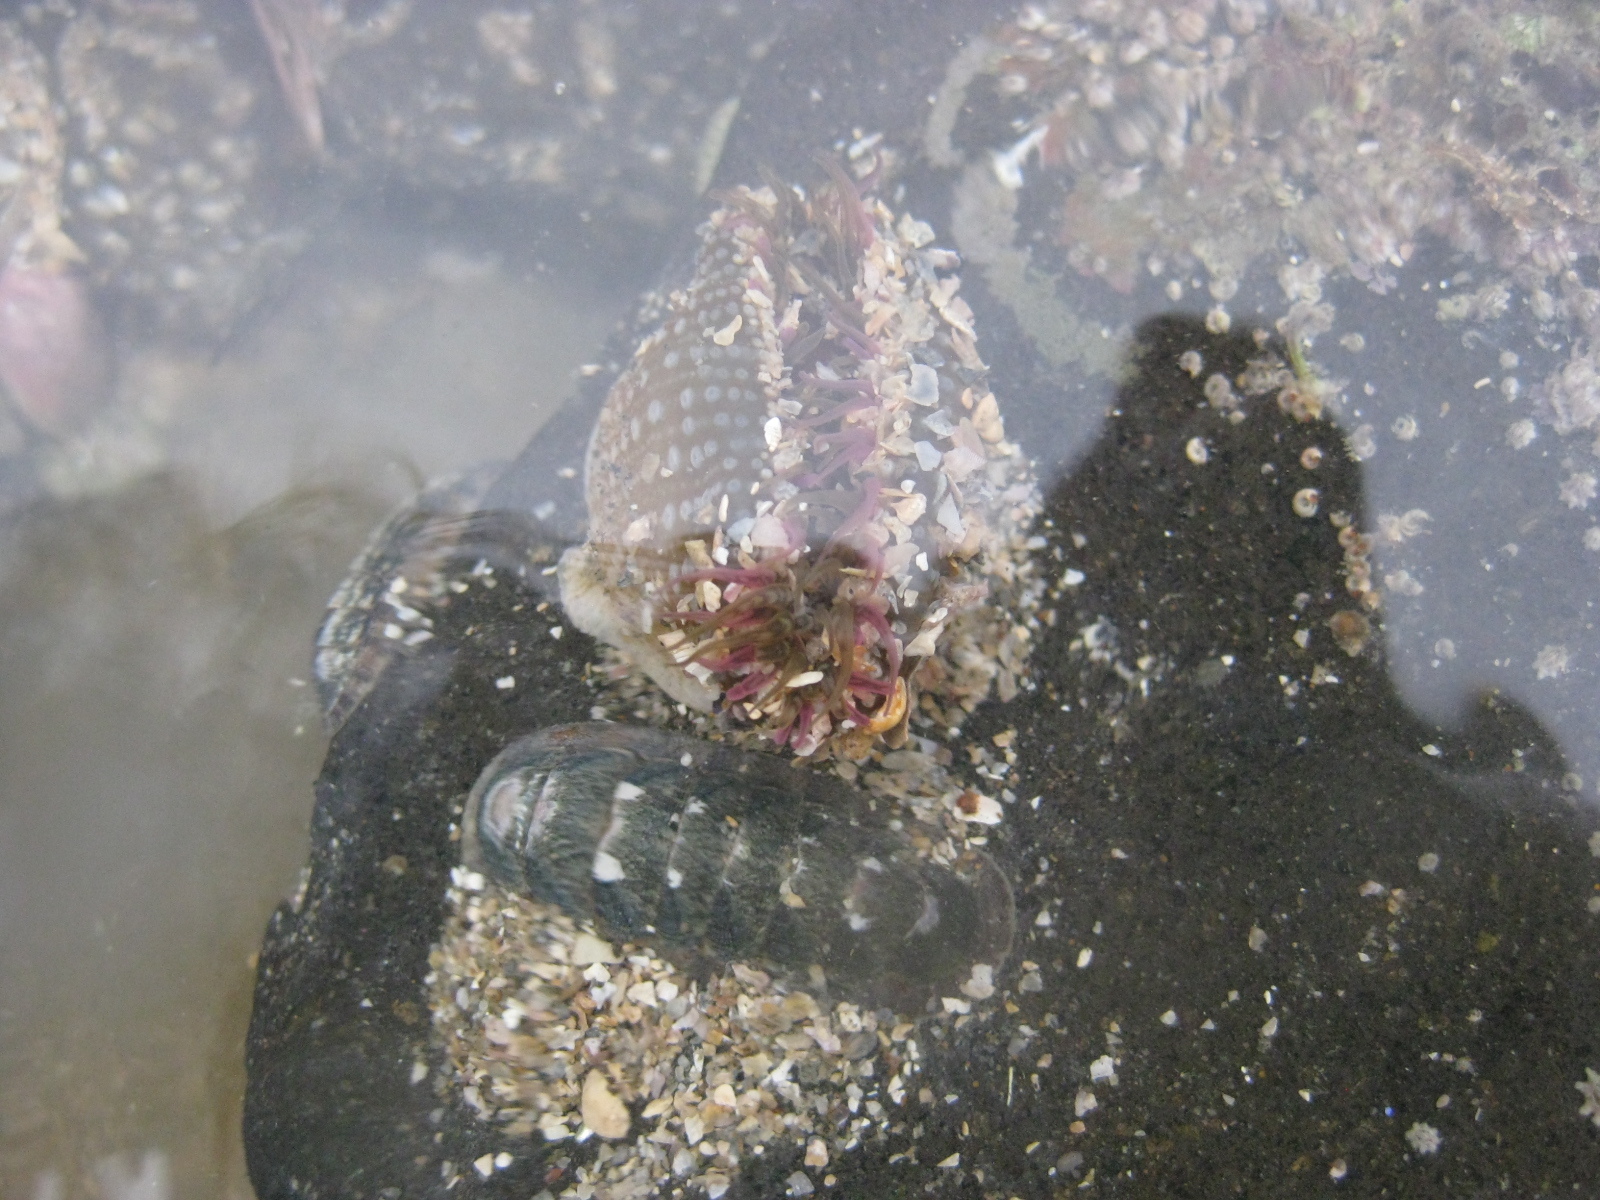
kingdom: Animalia
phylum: Cnidaria
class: Anthozoa
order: Actiniaria
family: Actiniidae
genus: Oulactis
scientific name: Oulactis muscosa
